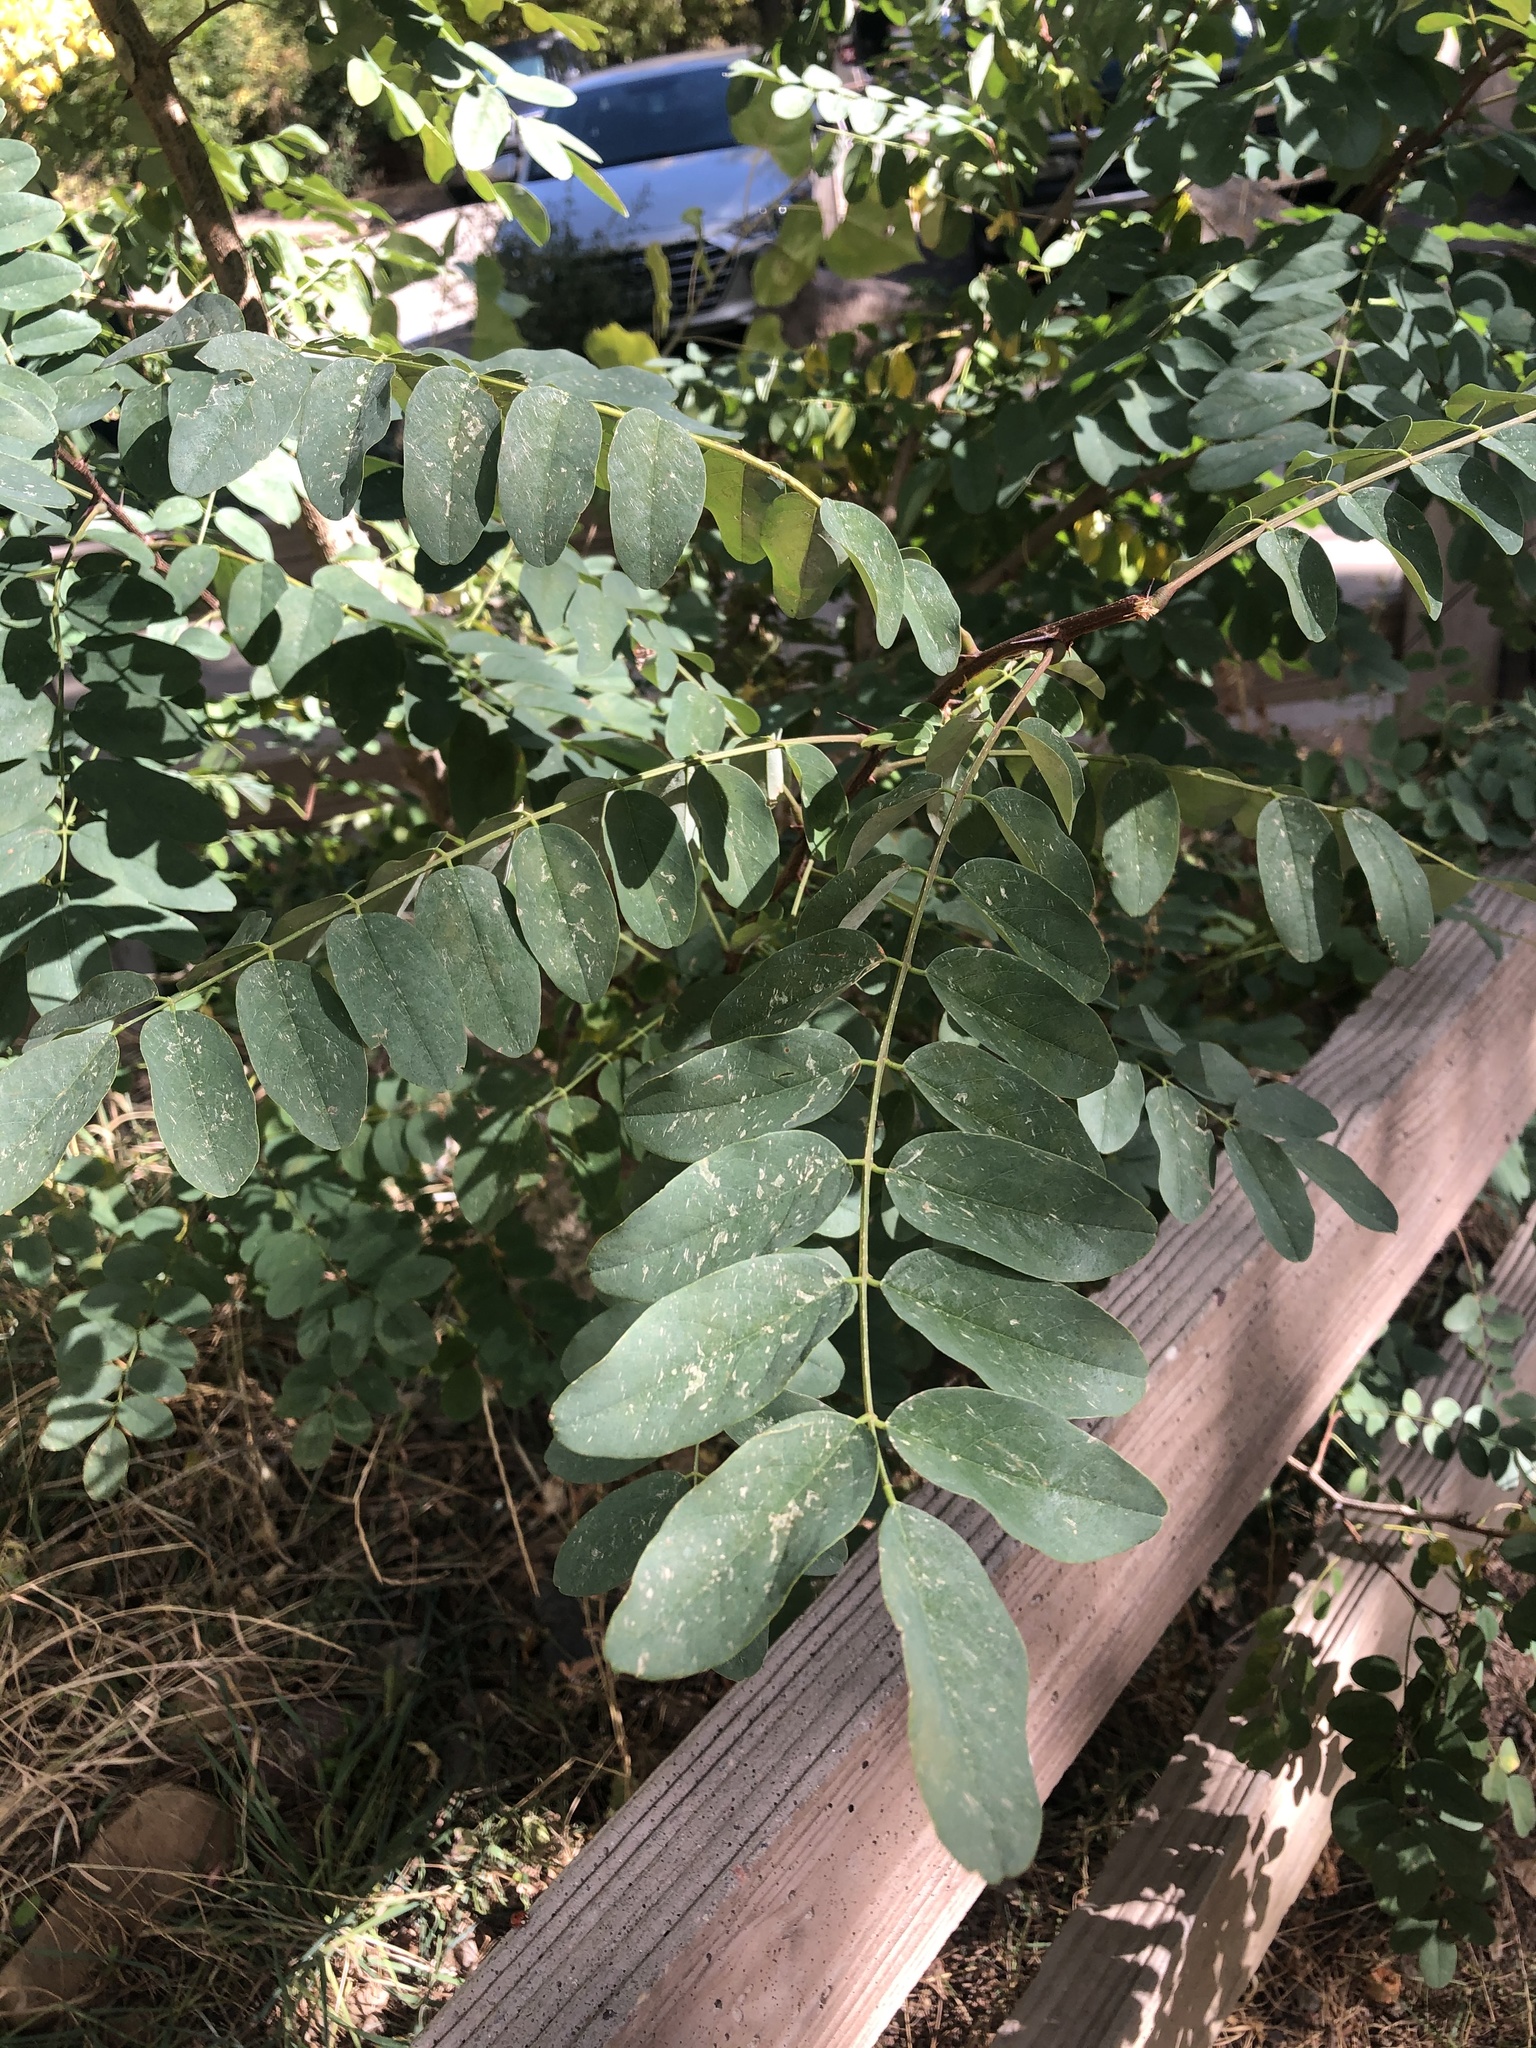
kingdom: Plantae
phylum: Tracheophyta
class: Magnoliopsida
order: Fabales
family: Fabaceae
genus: Robinia
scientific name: Robinia pseudoacacia
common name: Black locust
